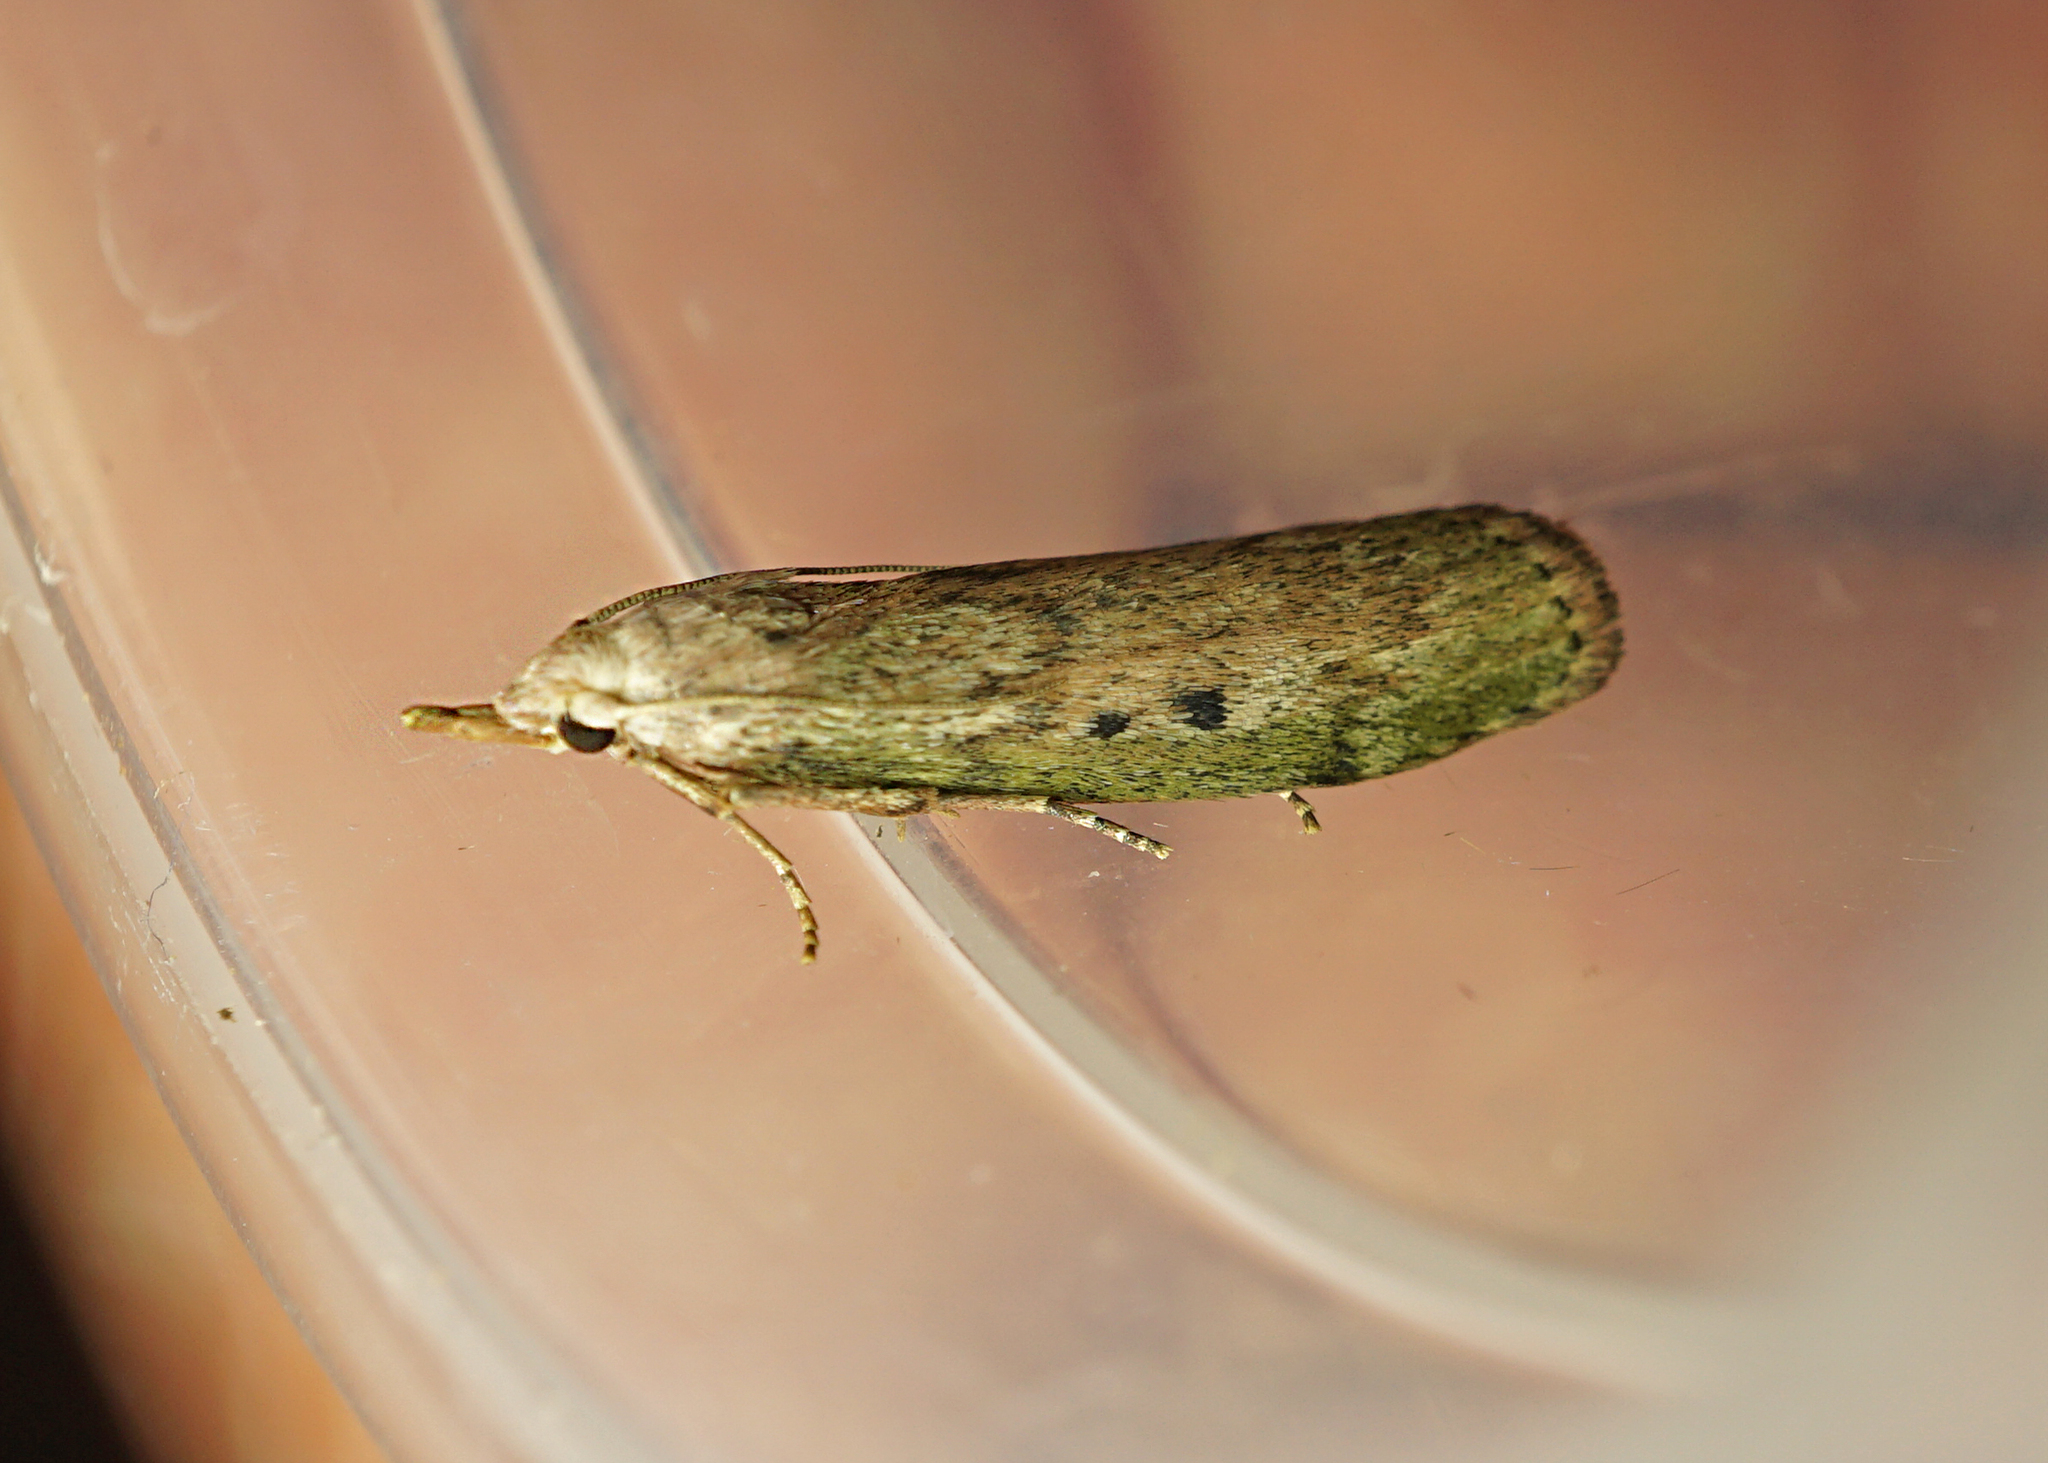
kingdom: Animalia
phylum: Arthropoda
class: Insecta
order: Lepidoptera
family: Pyralidae
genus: Aphomia
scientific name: Aphomia sociella
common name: Bee moth
